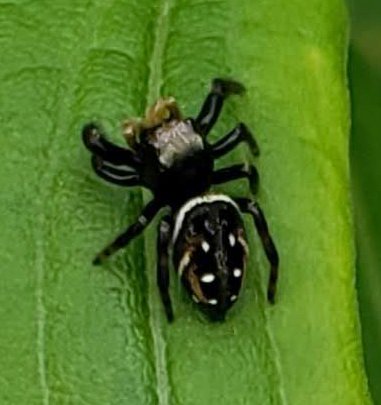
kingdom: Animalia
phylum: Arthropoda
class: Arachnida
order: Araneae
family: Salticidae
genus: Phidippus
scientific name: Phidippus clarus
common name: Brilliant jumping spider
